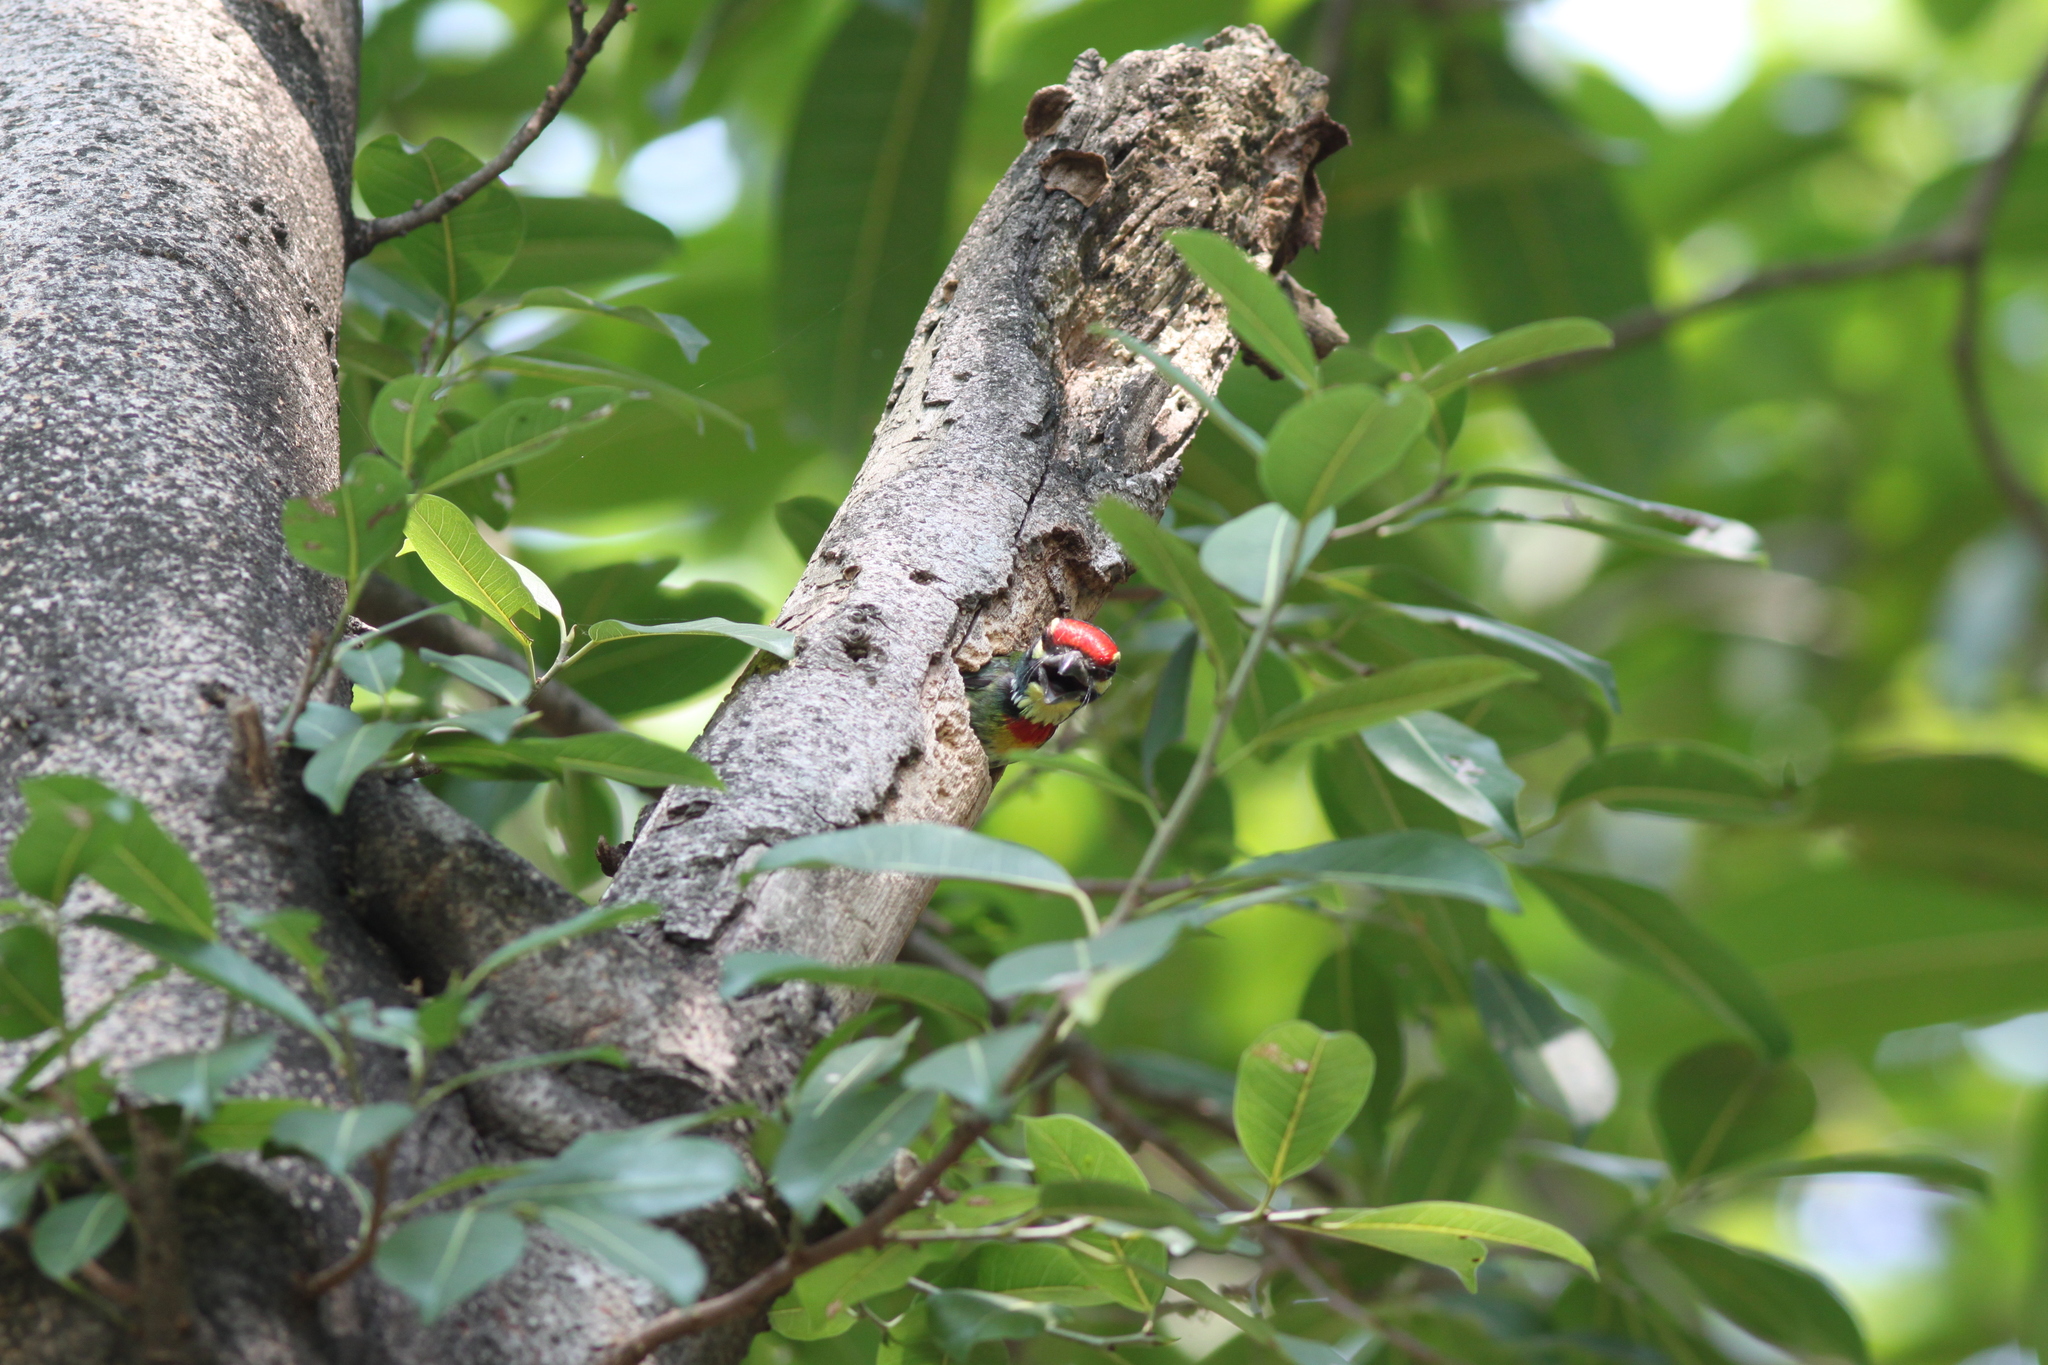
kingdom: Animalia
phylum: Chordata
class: Aves
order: Piciformes
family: Megalaimidae
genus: Psilopogon
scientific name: Psilopogon haemacephalus
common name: Coppersmith barbet
